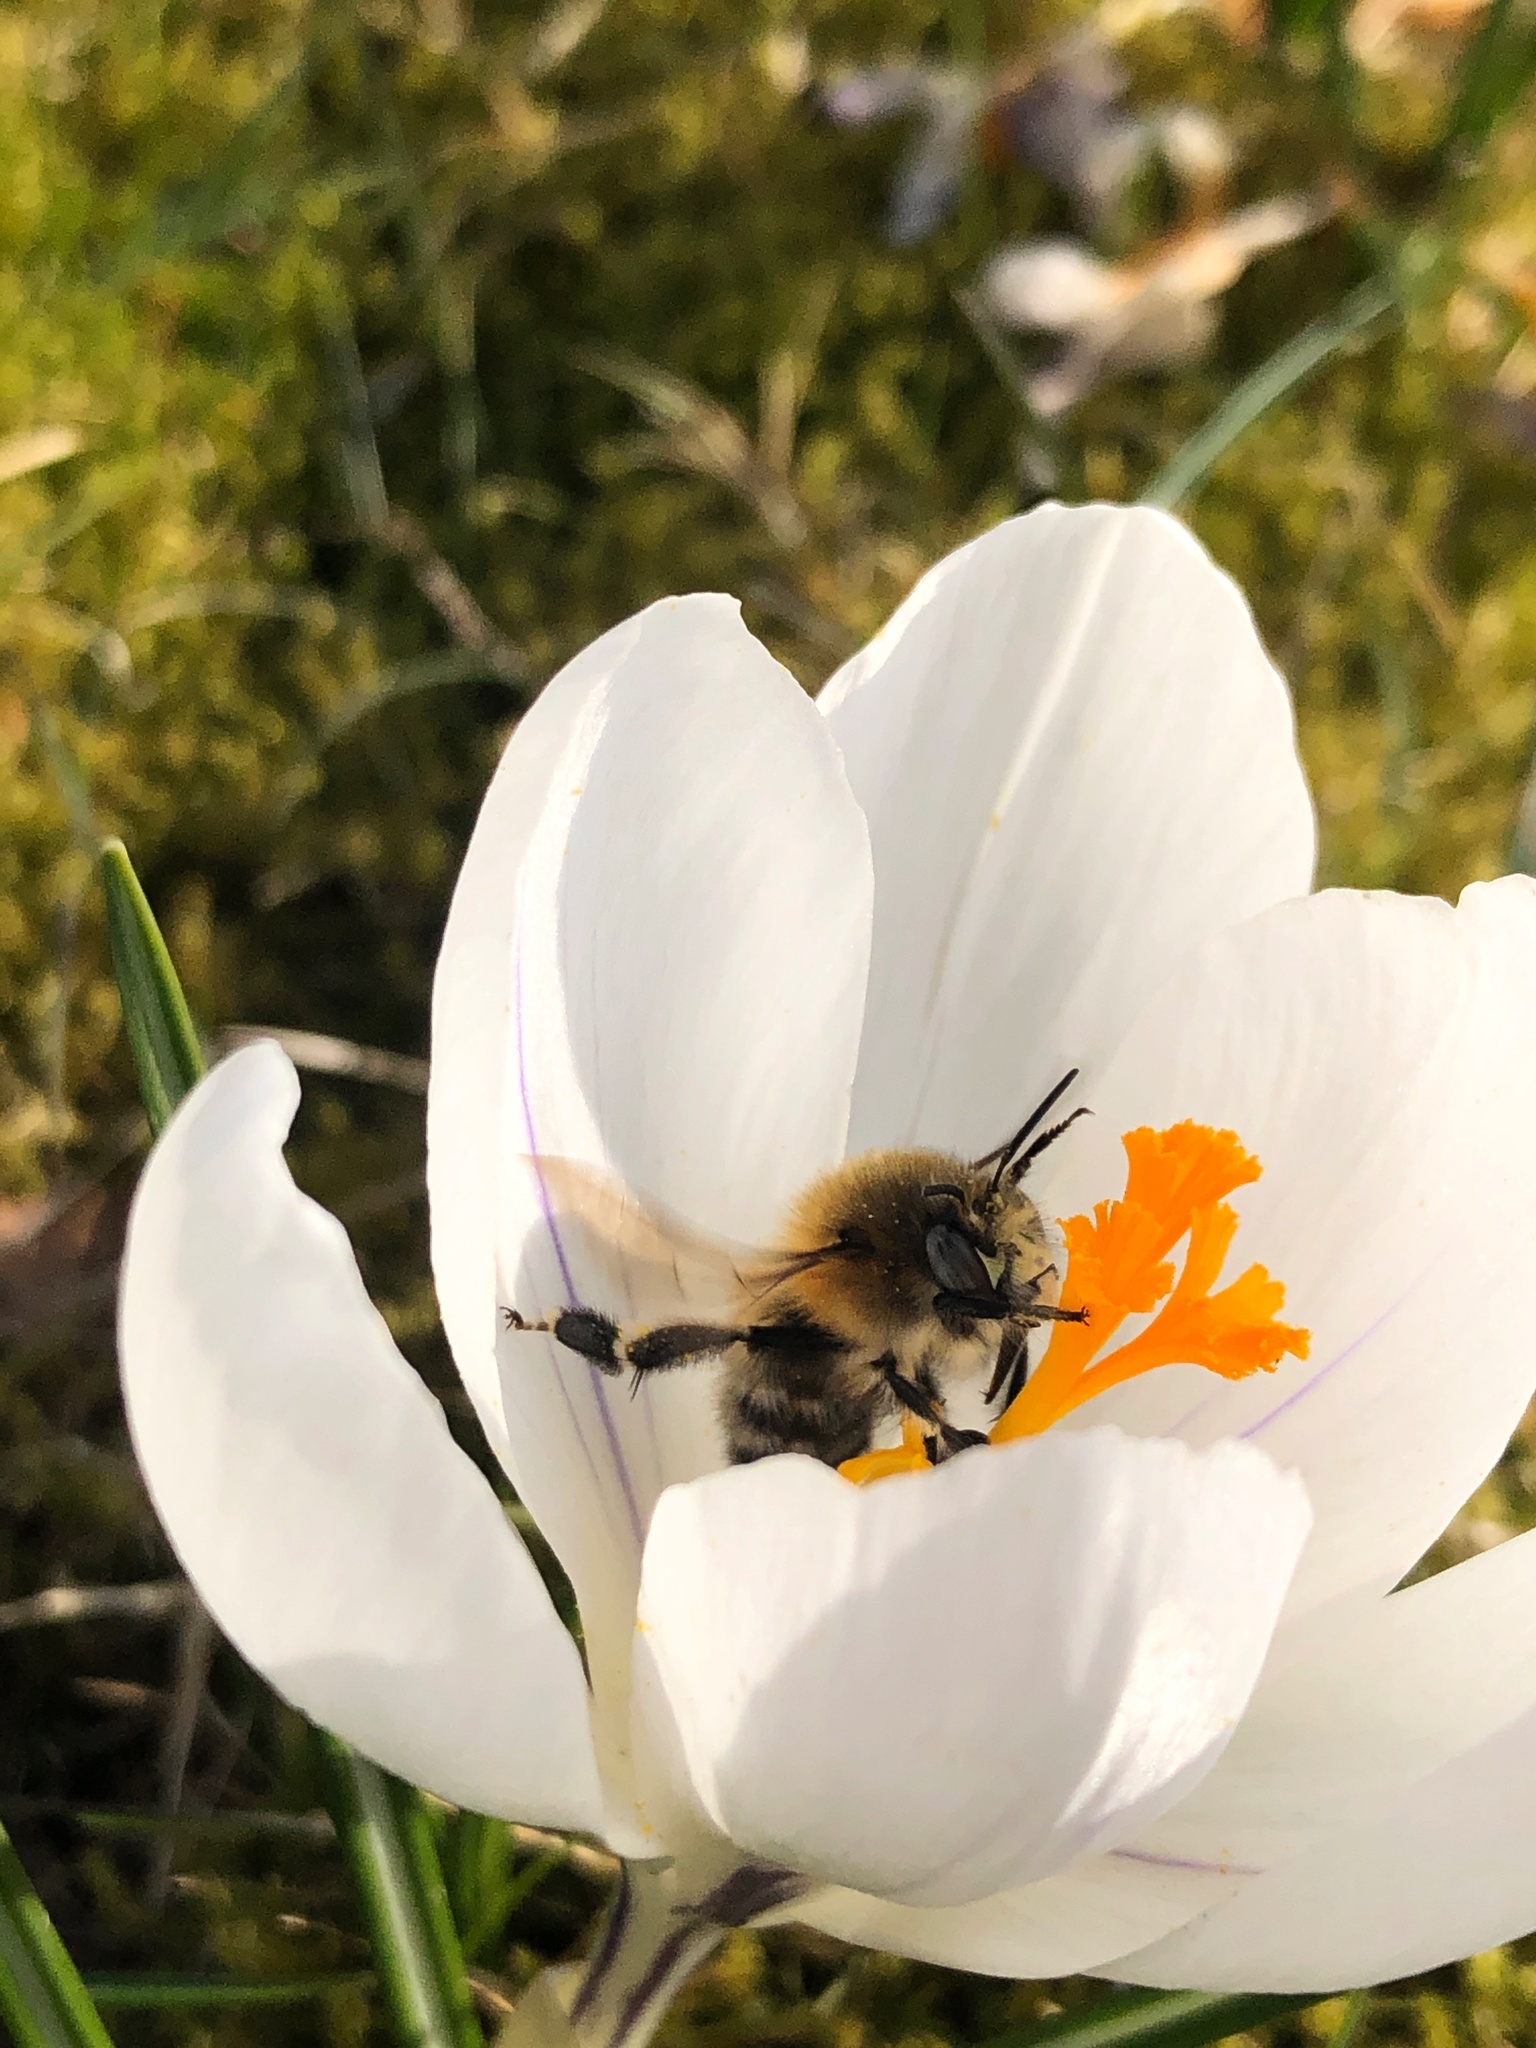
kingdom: Animalia
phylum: Arthropoda
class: Insecta
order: Hymenoptera
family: Apidae
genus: Anthophora
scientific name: Anthophora plumipes
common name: Hairy-footed flower bee
